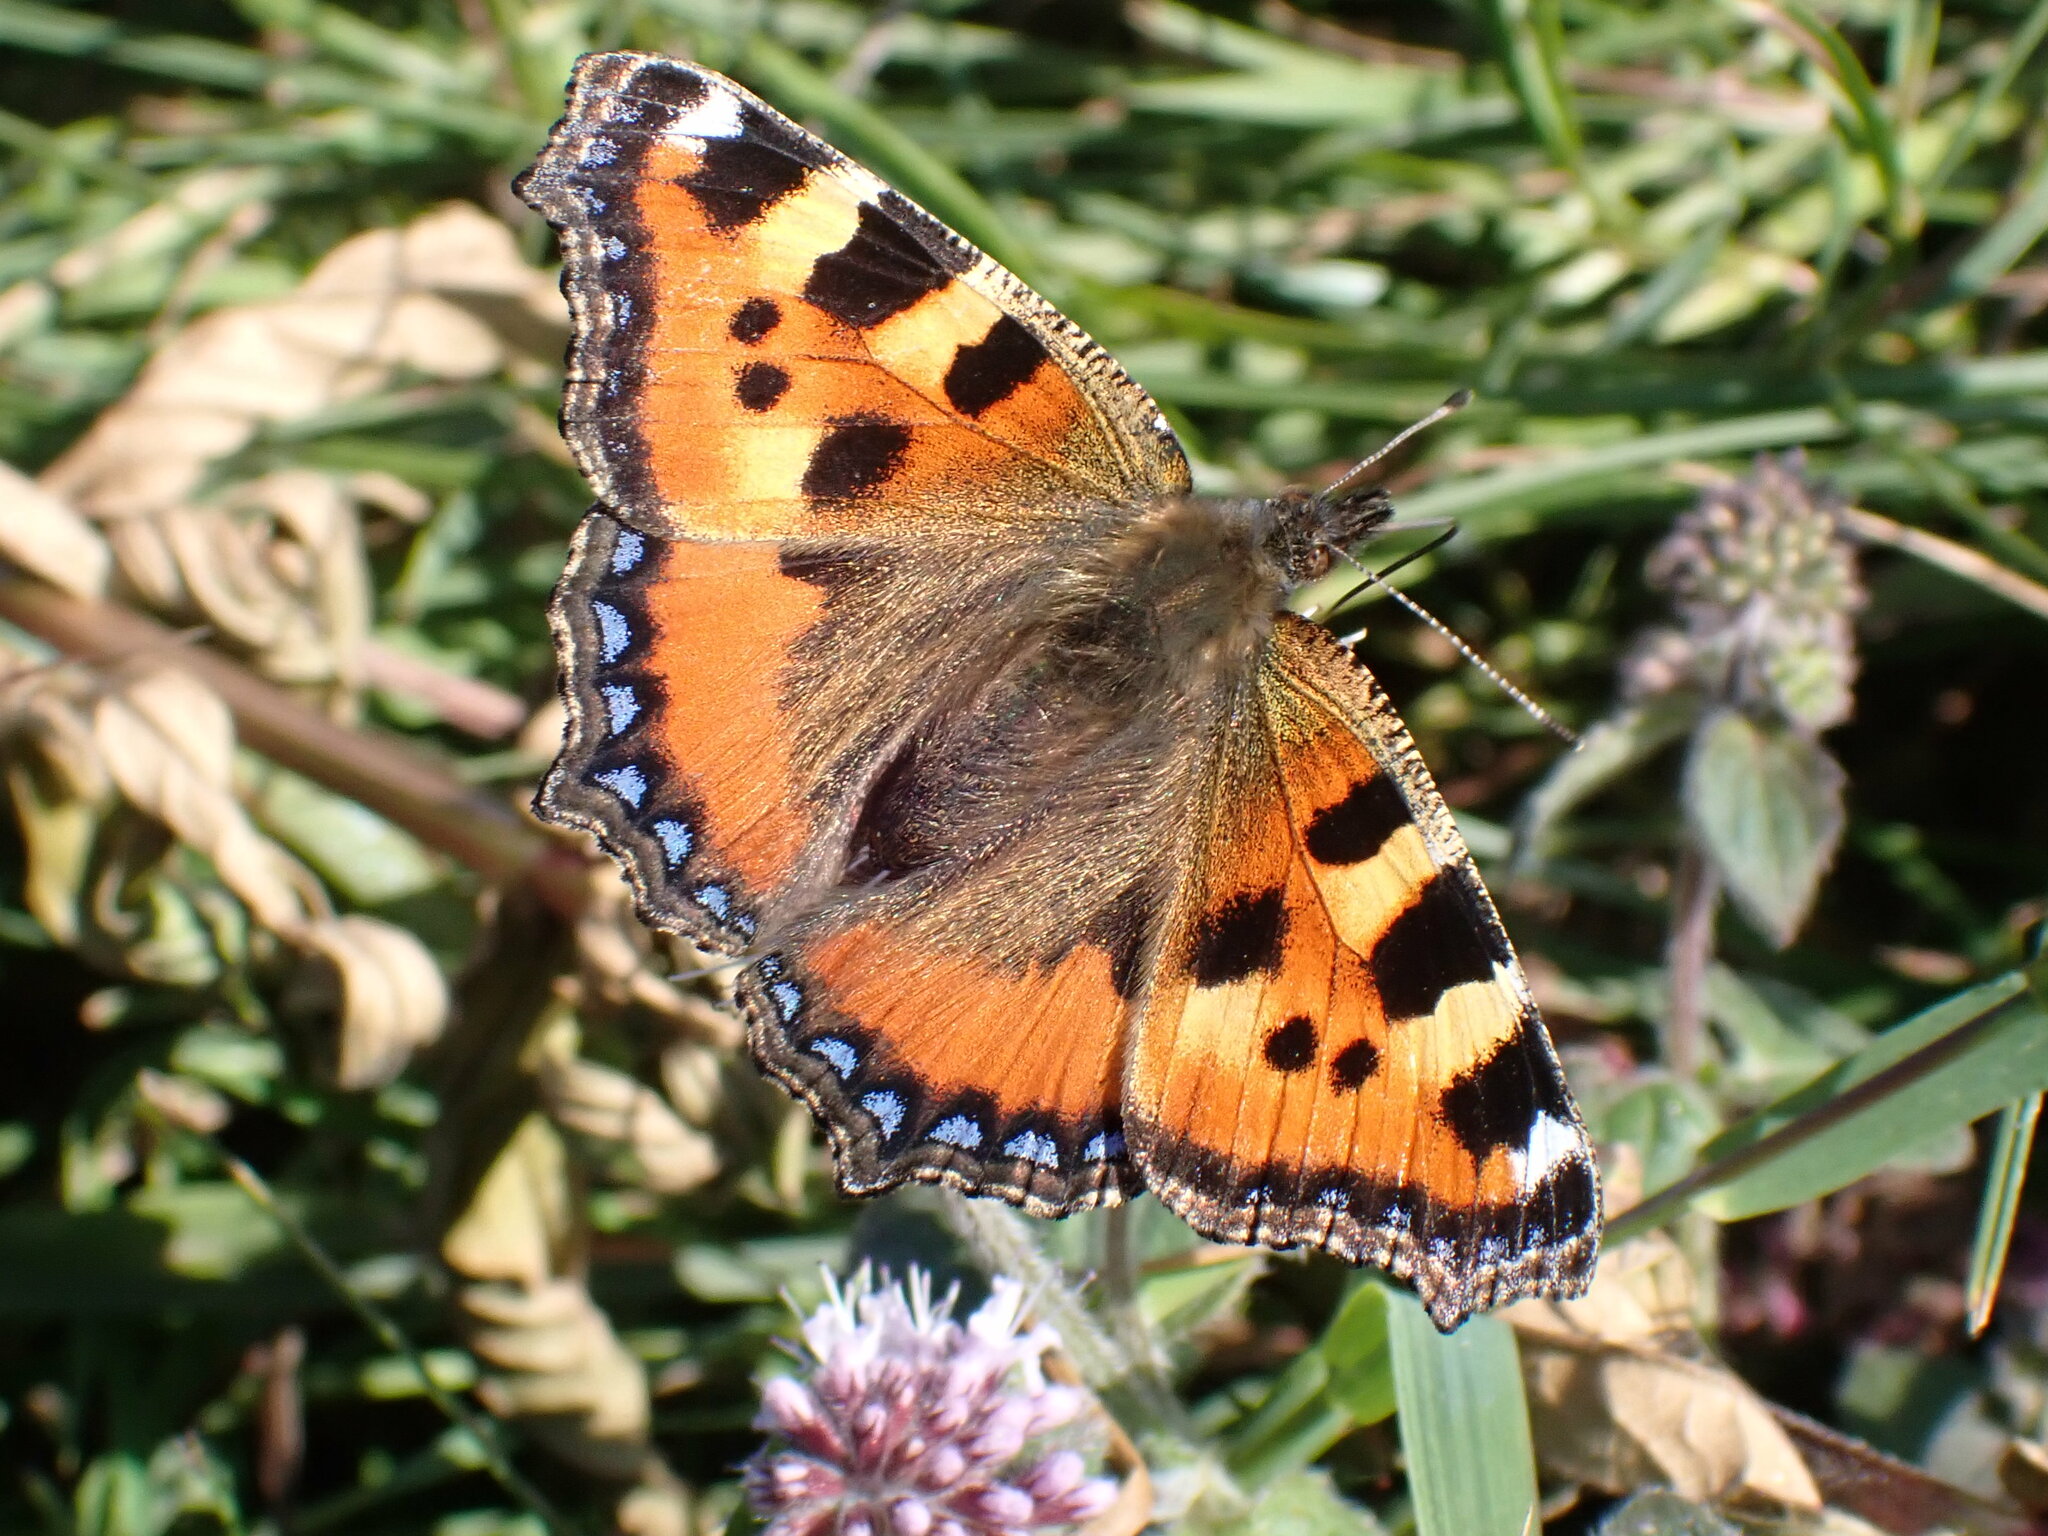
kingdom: Animalia
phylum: Arthropoda
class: Insecta
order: Lepidoptera
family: Nymphalidae
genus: Aglais
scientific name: Aglais urticae
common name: Small tortoiseshell
